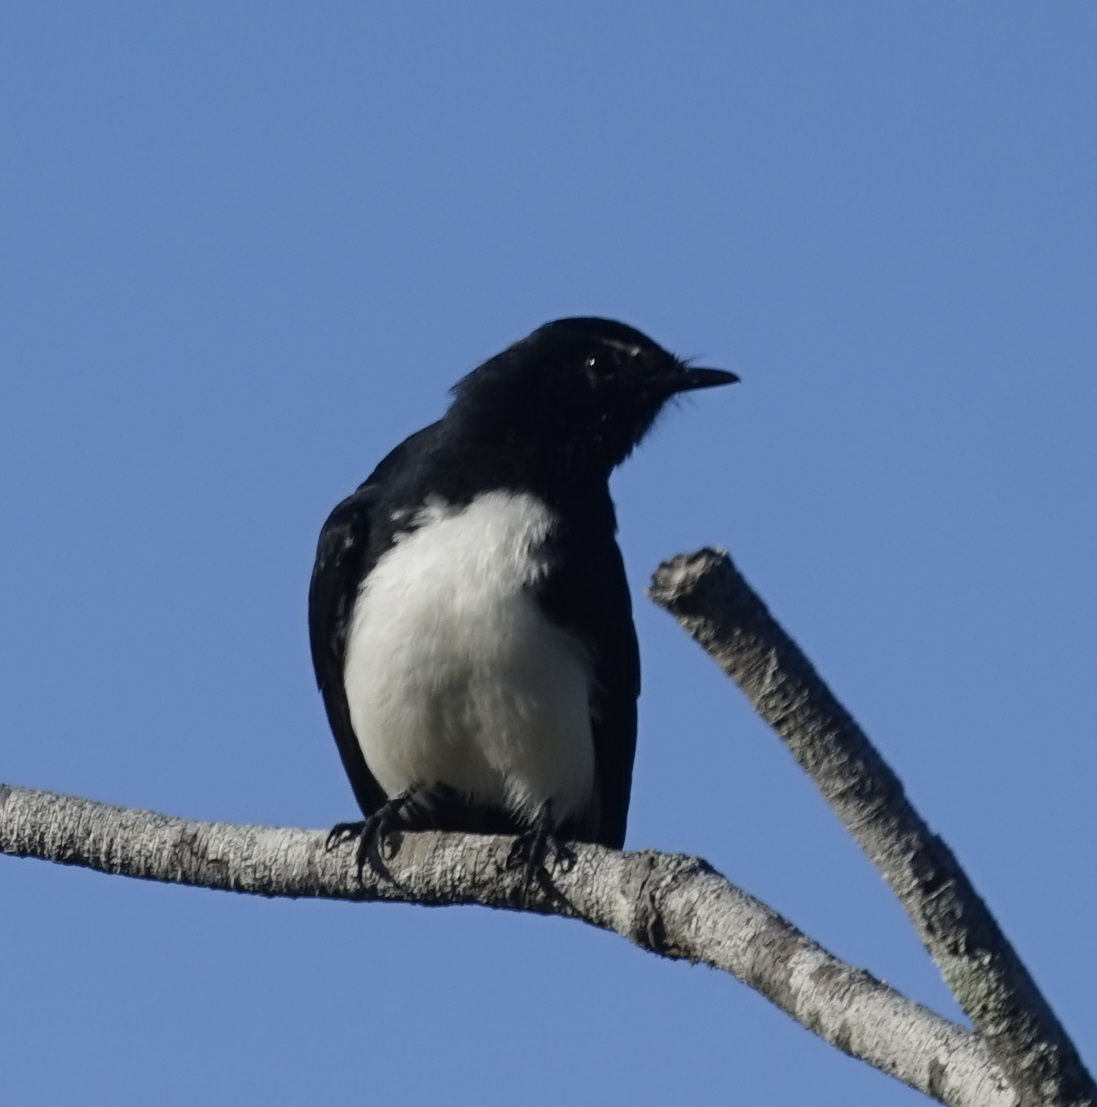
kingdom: Animalia
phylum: Chordata
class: Aves
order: Passeriformes
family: Rhipiduridae
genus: Rhipidura
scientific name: Rhipidura leucophrys
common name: Willie wagtail
